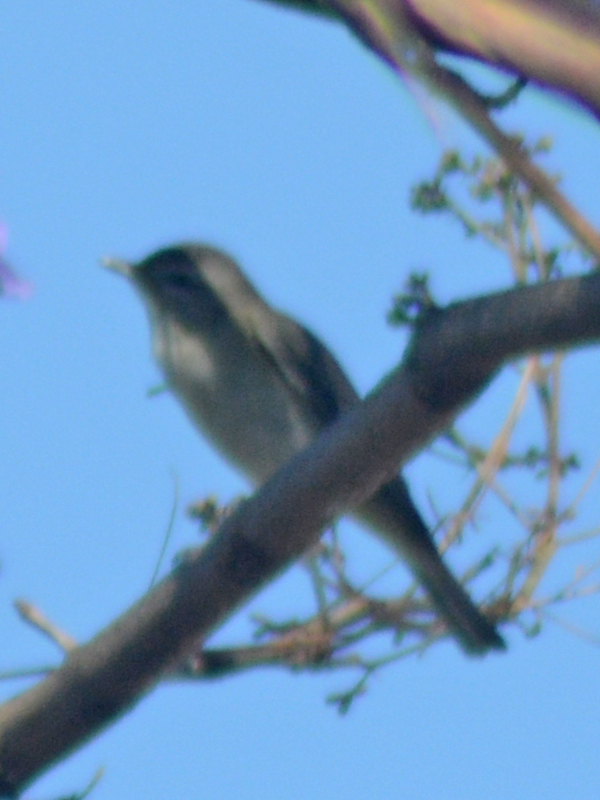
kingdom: Animalia
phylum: Chordata
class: Aves
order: Passeriformes
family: Vireonidae
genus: Vireo
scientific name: Vireo gilvus
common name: Warbling vireo
